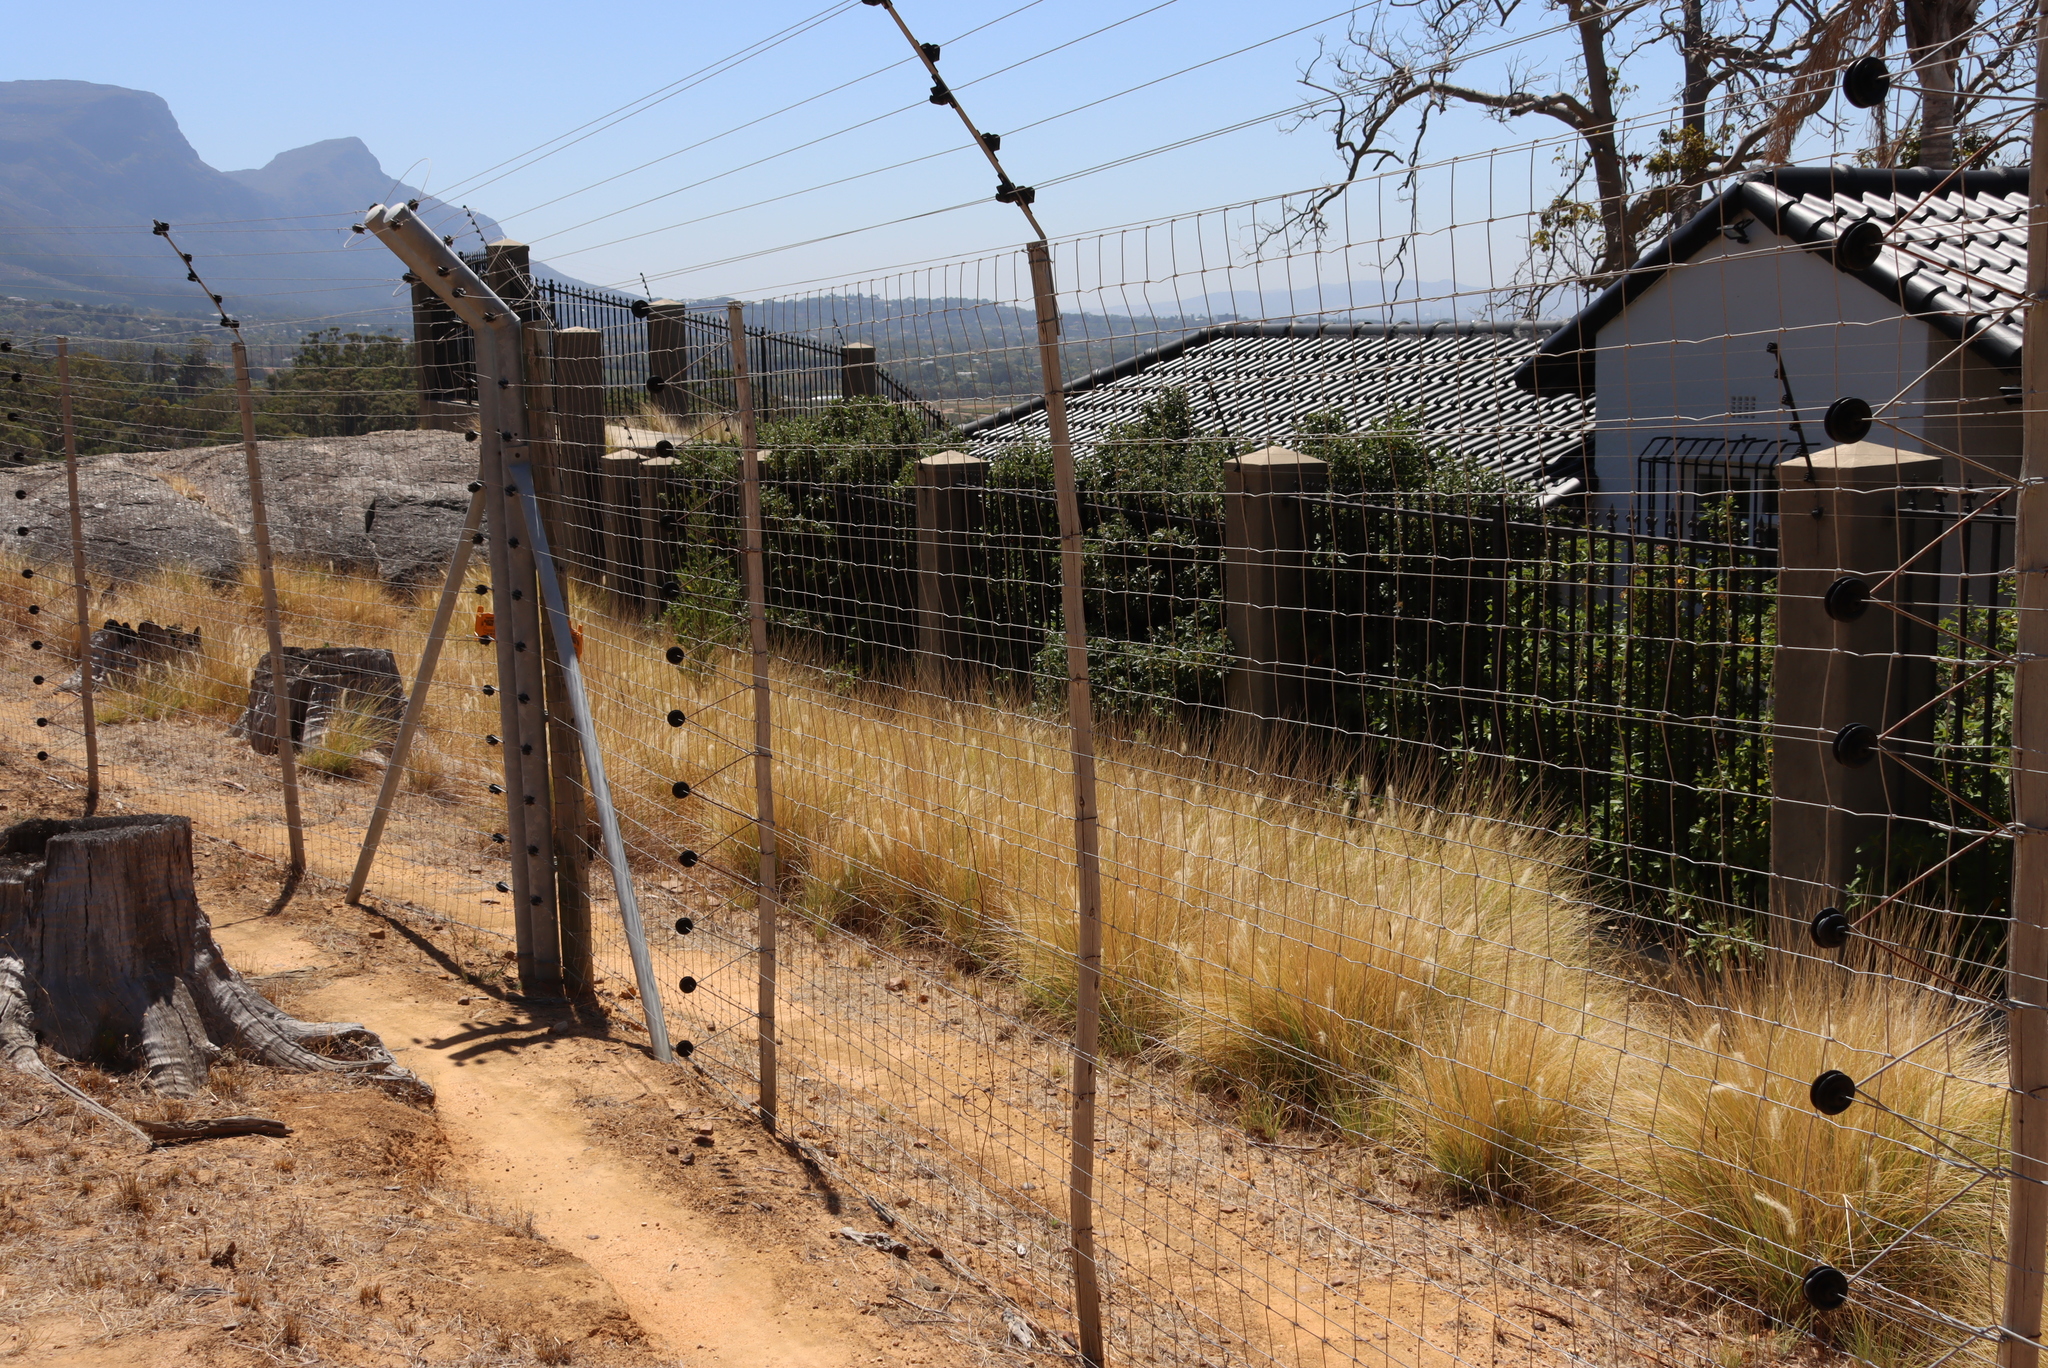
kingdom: Plantae
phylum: Tracheophyta
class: Liliopsida
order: Poales
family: Poaceae
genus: Cenchrus
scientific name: Cenchrus setaceus
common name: Crimson fountaingrass
